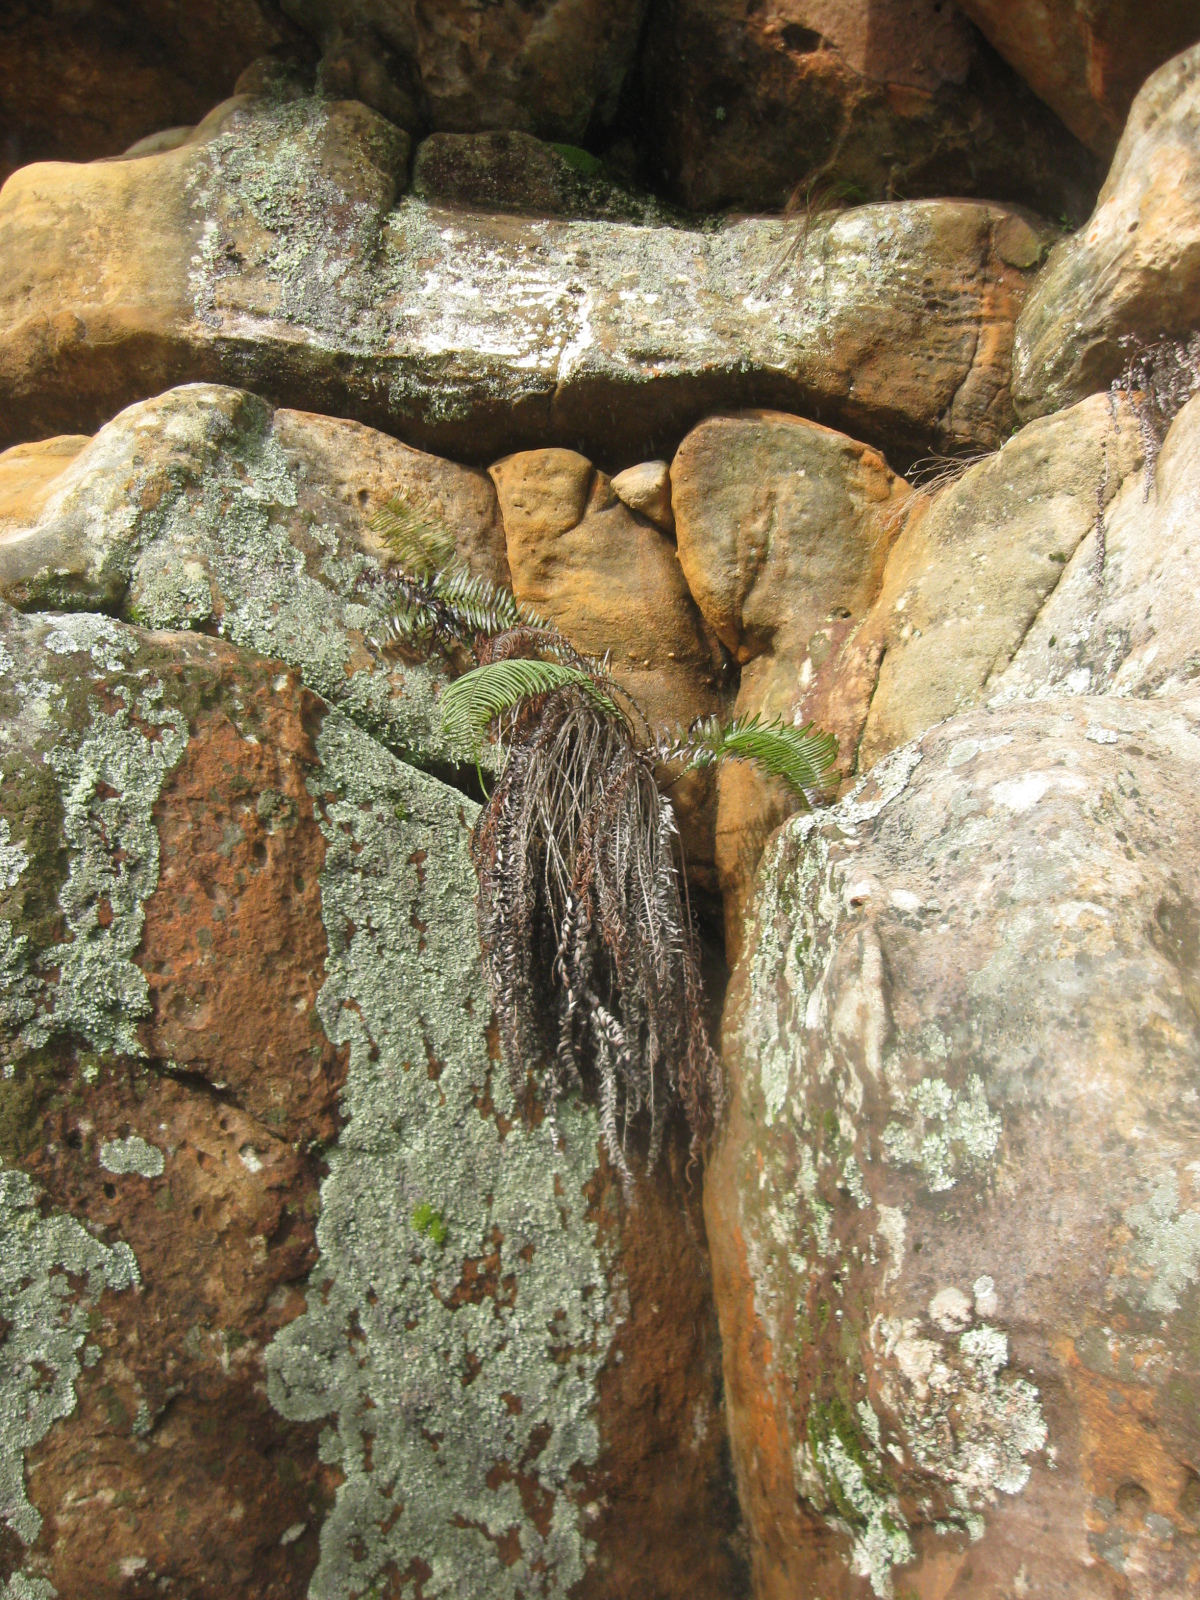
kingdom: Plantae
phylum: Tracheophyta
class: Polypodiopsida
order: Polypodiales
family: Blechnaceae
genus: Lomaridium
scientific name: Lomaridium attenuatum
